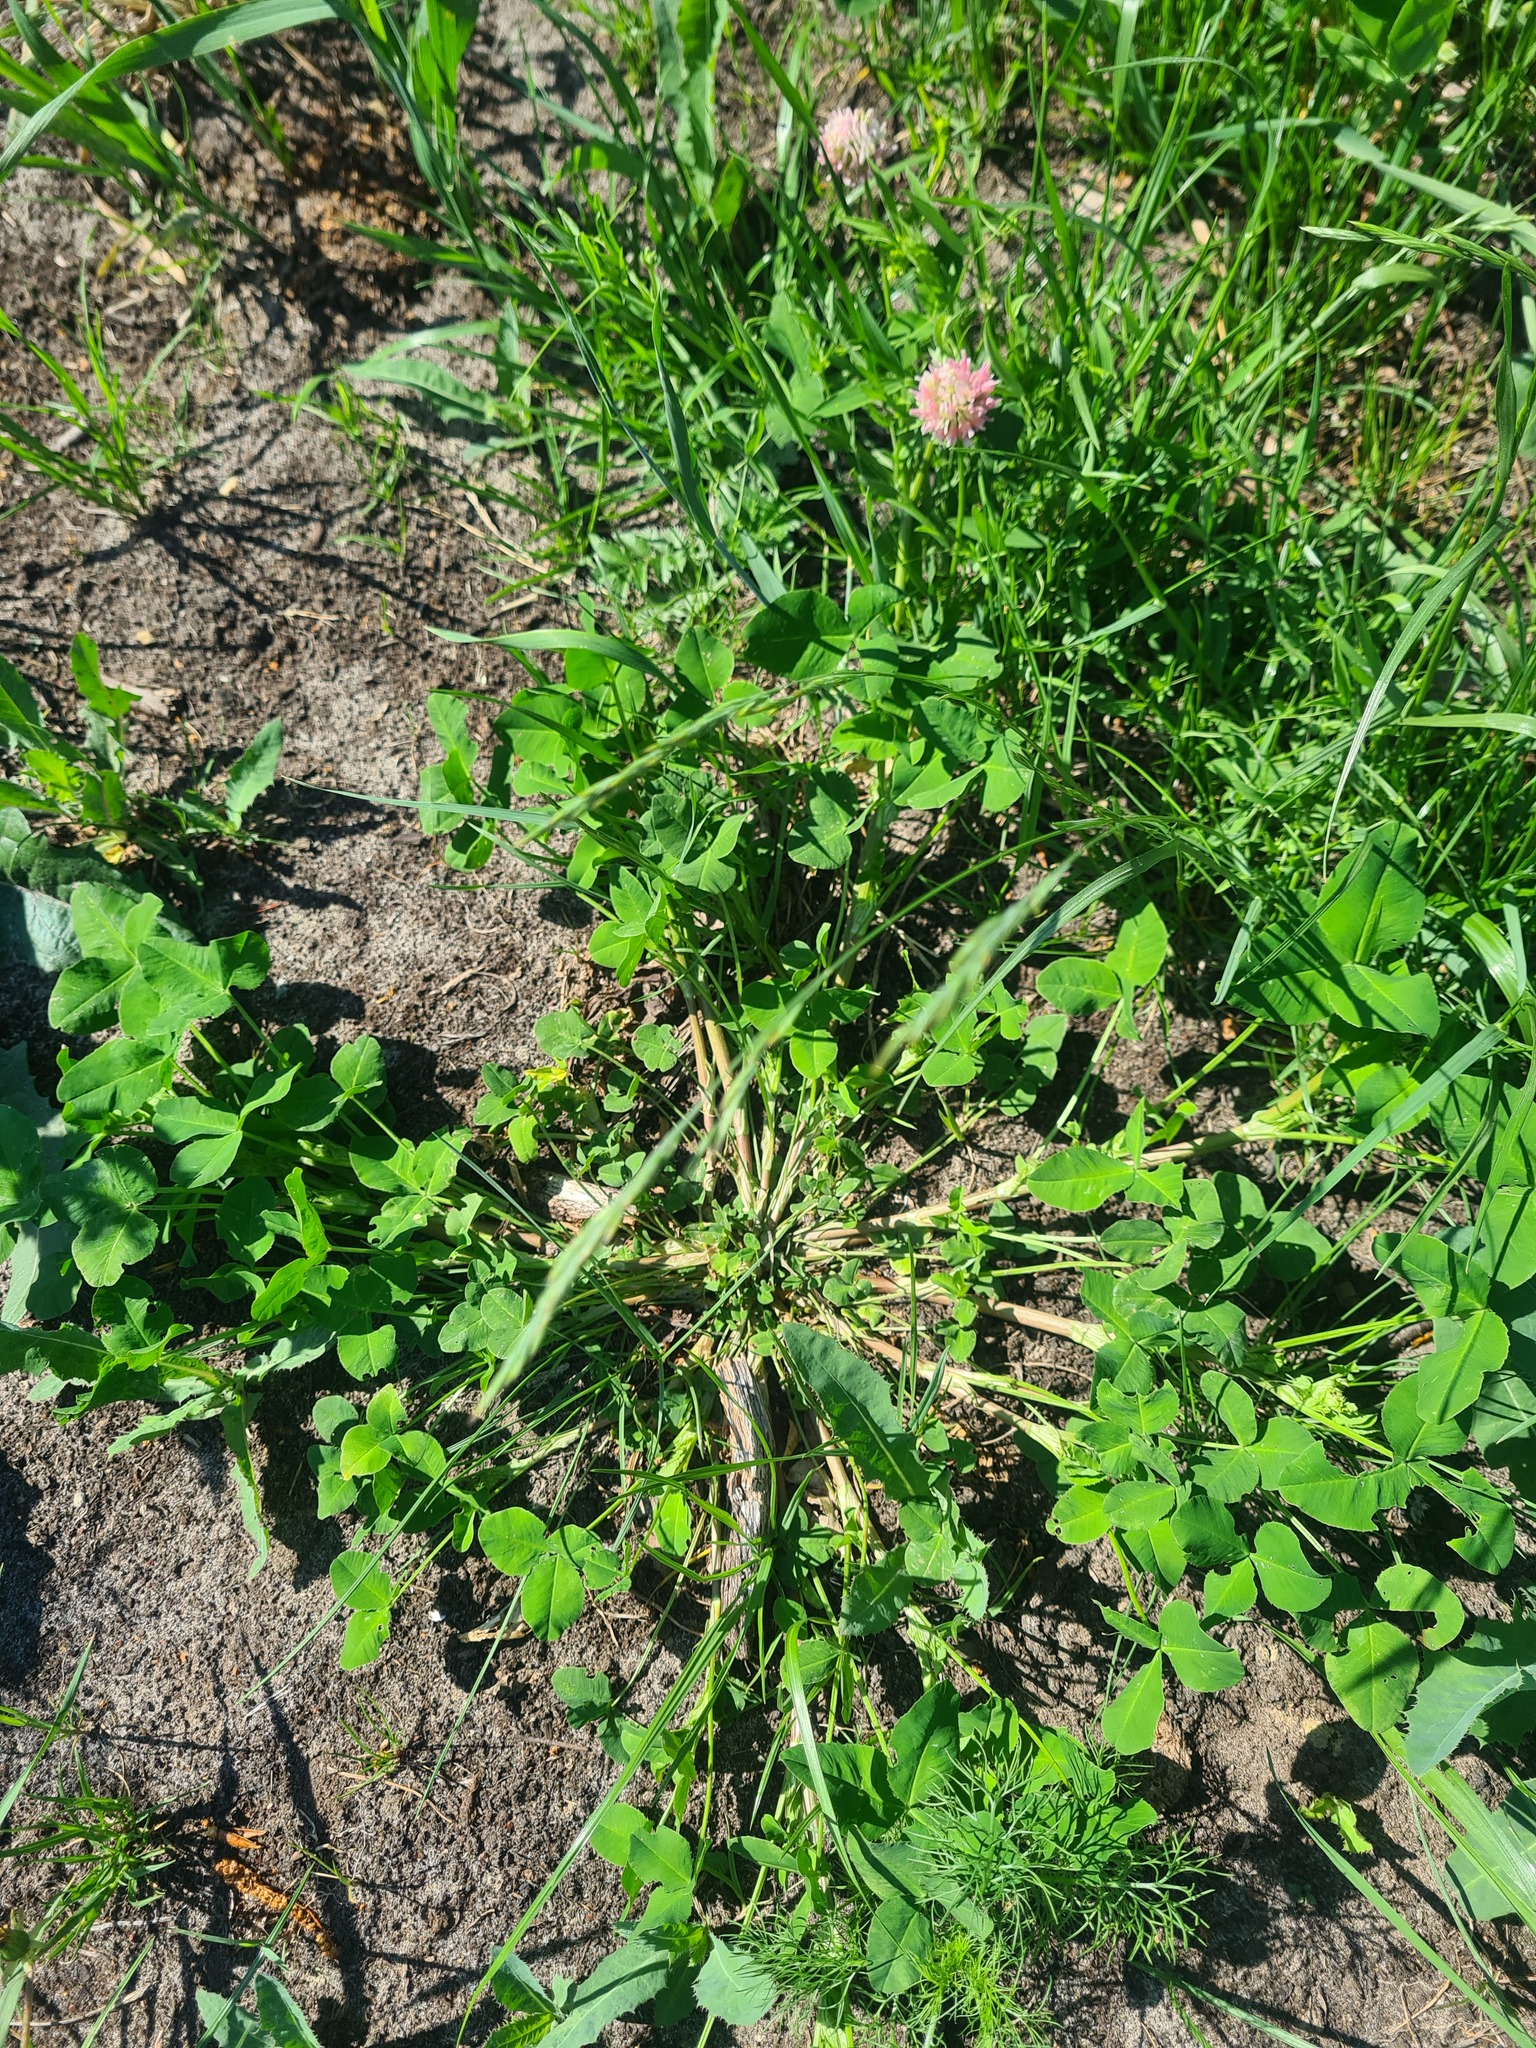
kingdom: Plantae
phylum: Tracheophyta
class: Magnoliopsida
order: Fabales
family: Fabaceae
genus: Trifolium
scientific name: Trifolium hybridum
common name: Alsike clover
